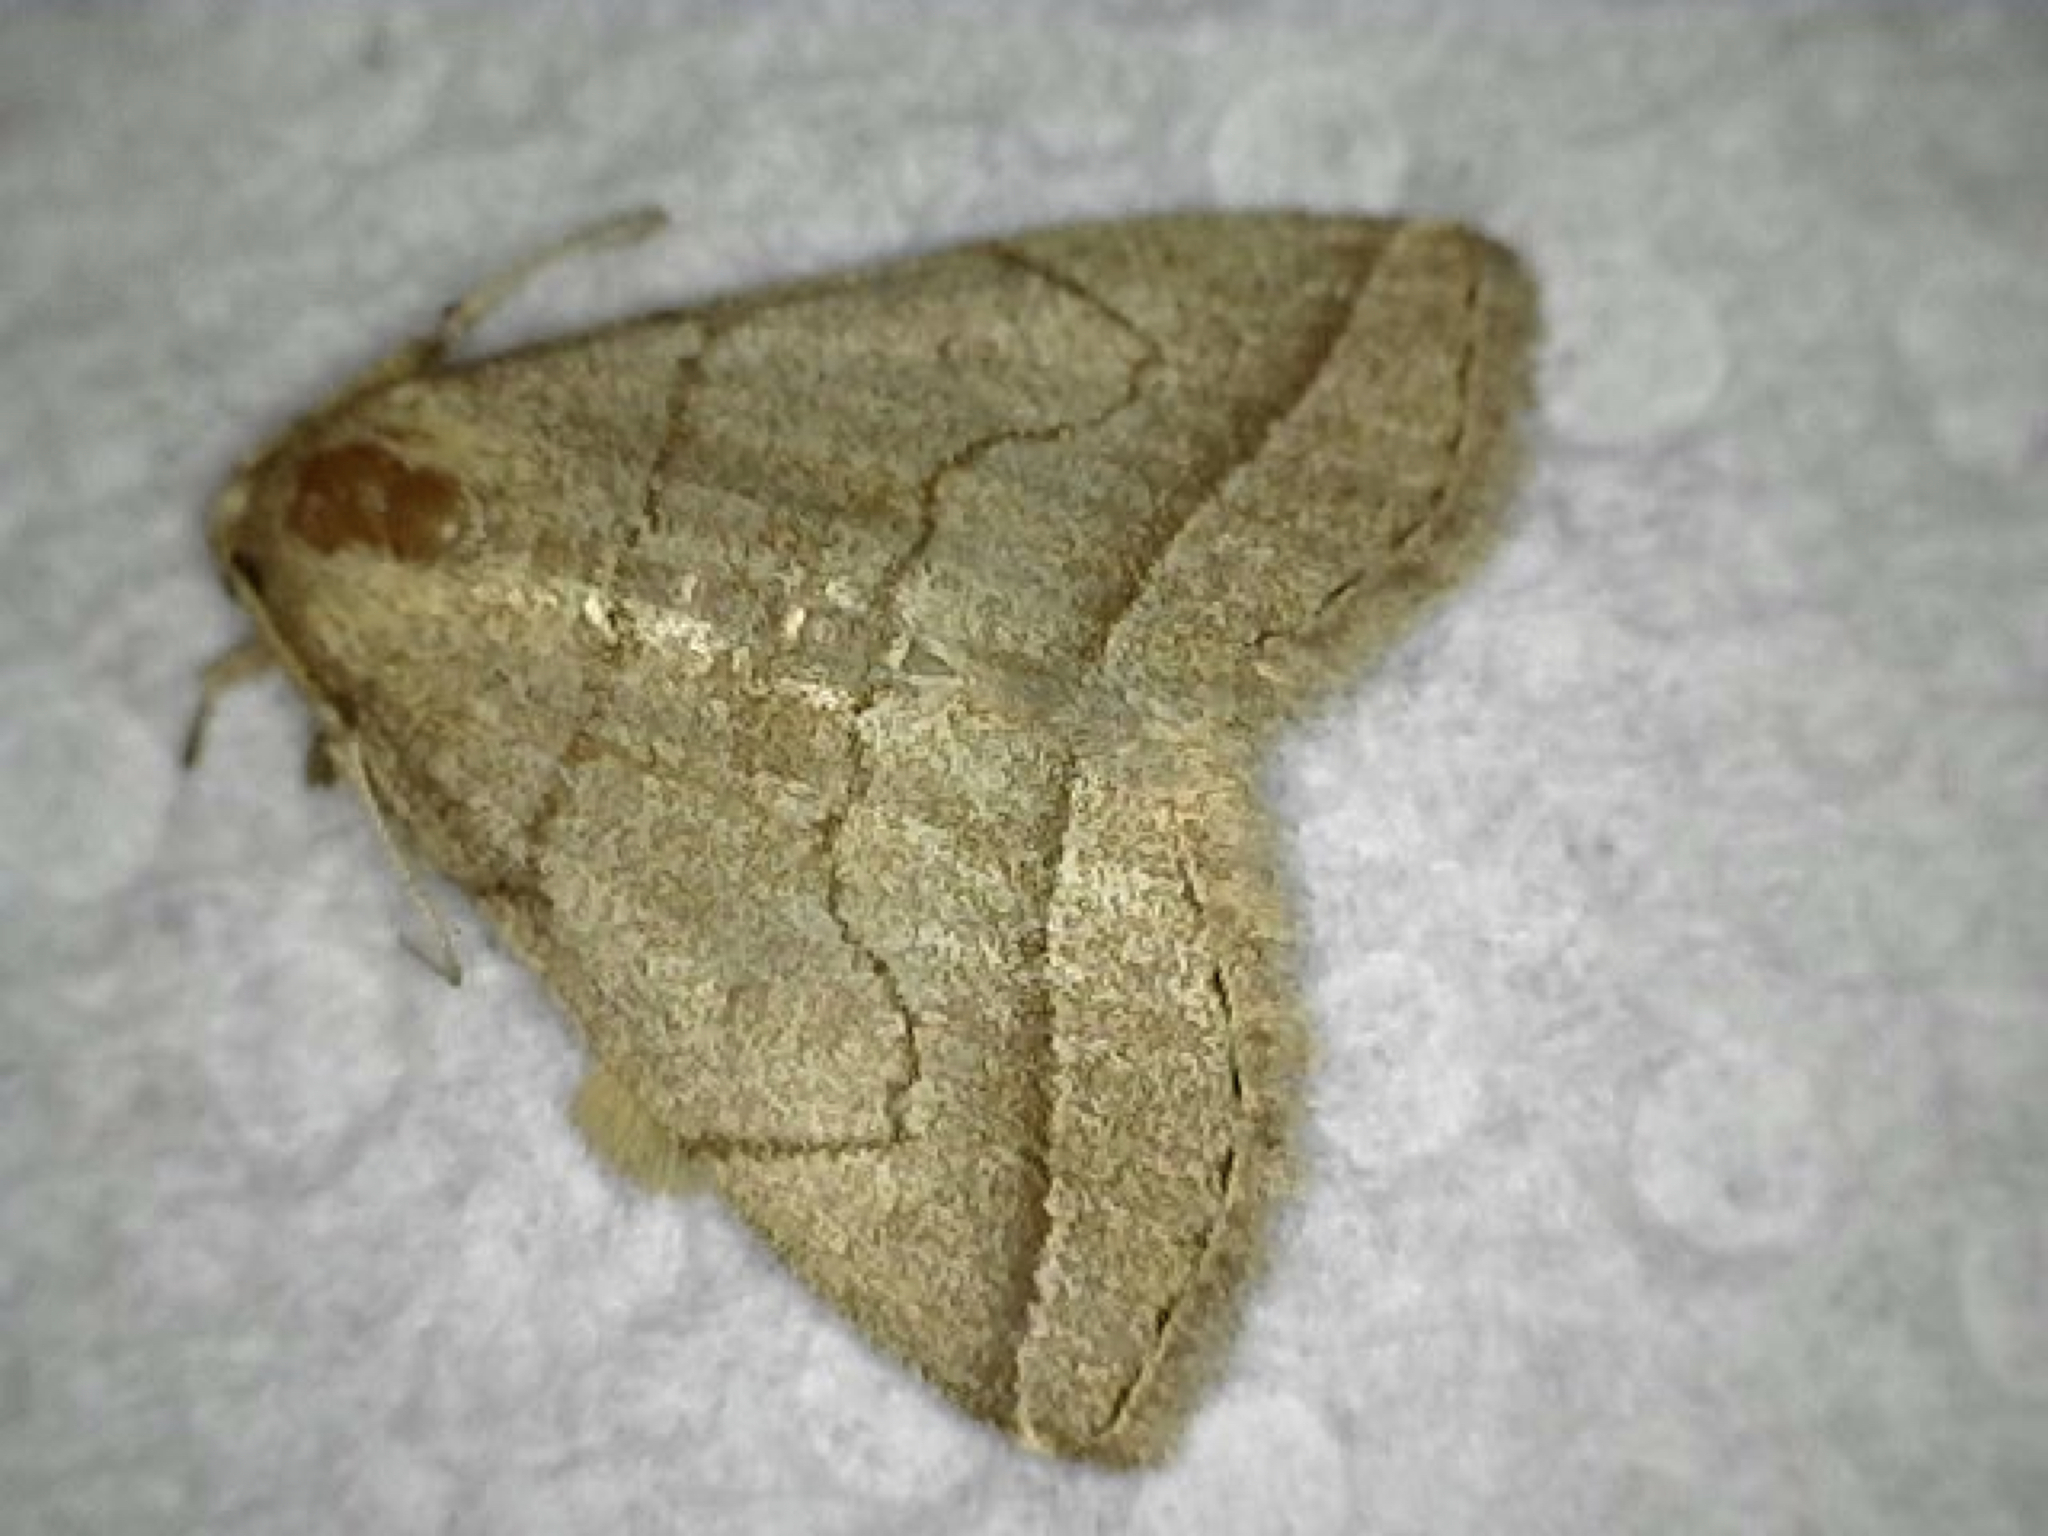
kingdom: Animalia
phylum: Arthropoda
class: Insecta
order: Lepidoptera
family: Erebidae
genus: Zanclognatha
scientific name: Zanclognatha cruralis
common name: Early fan-foot
